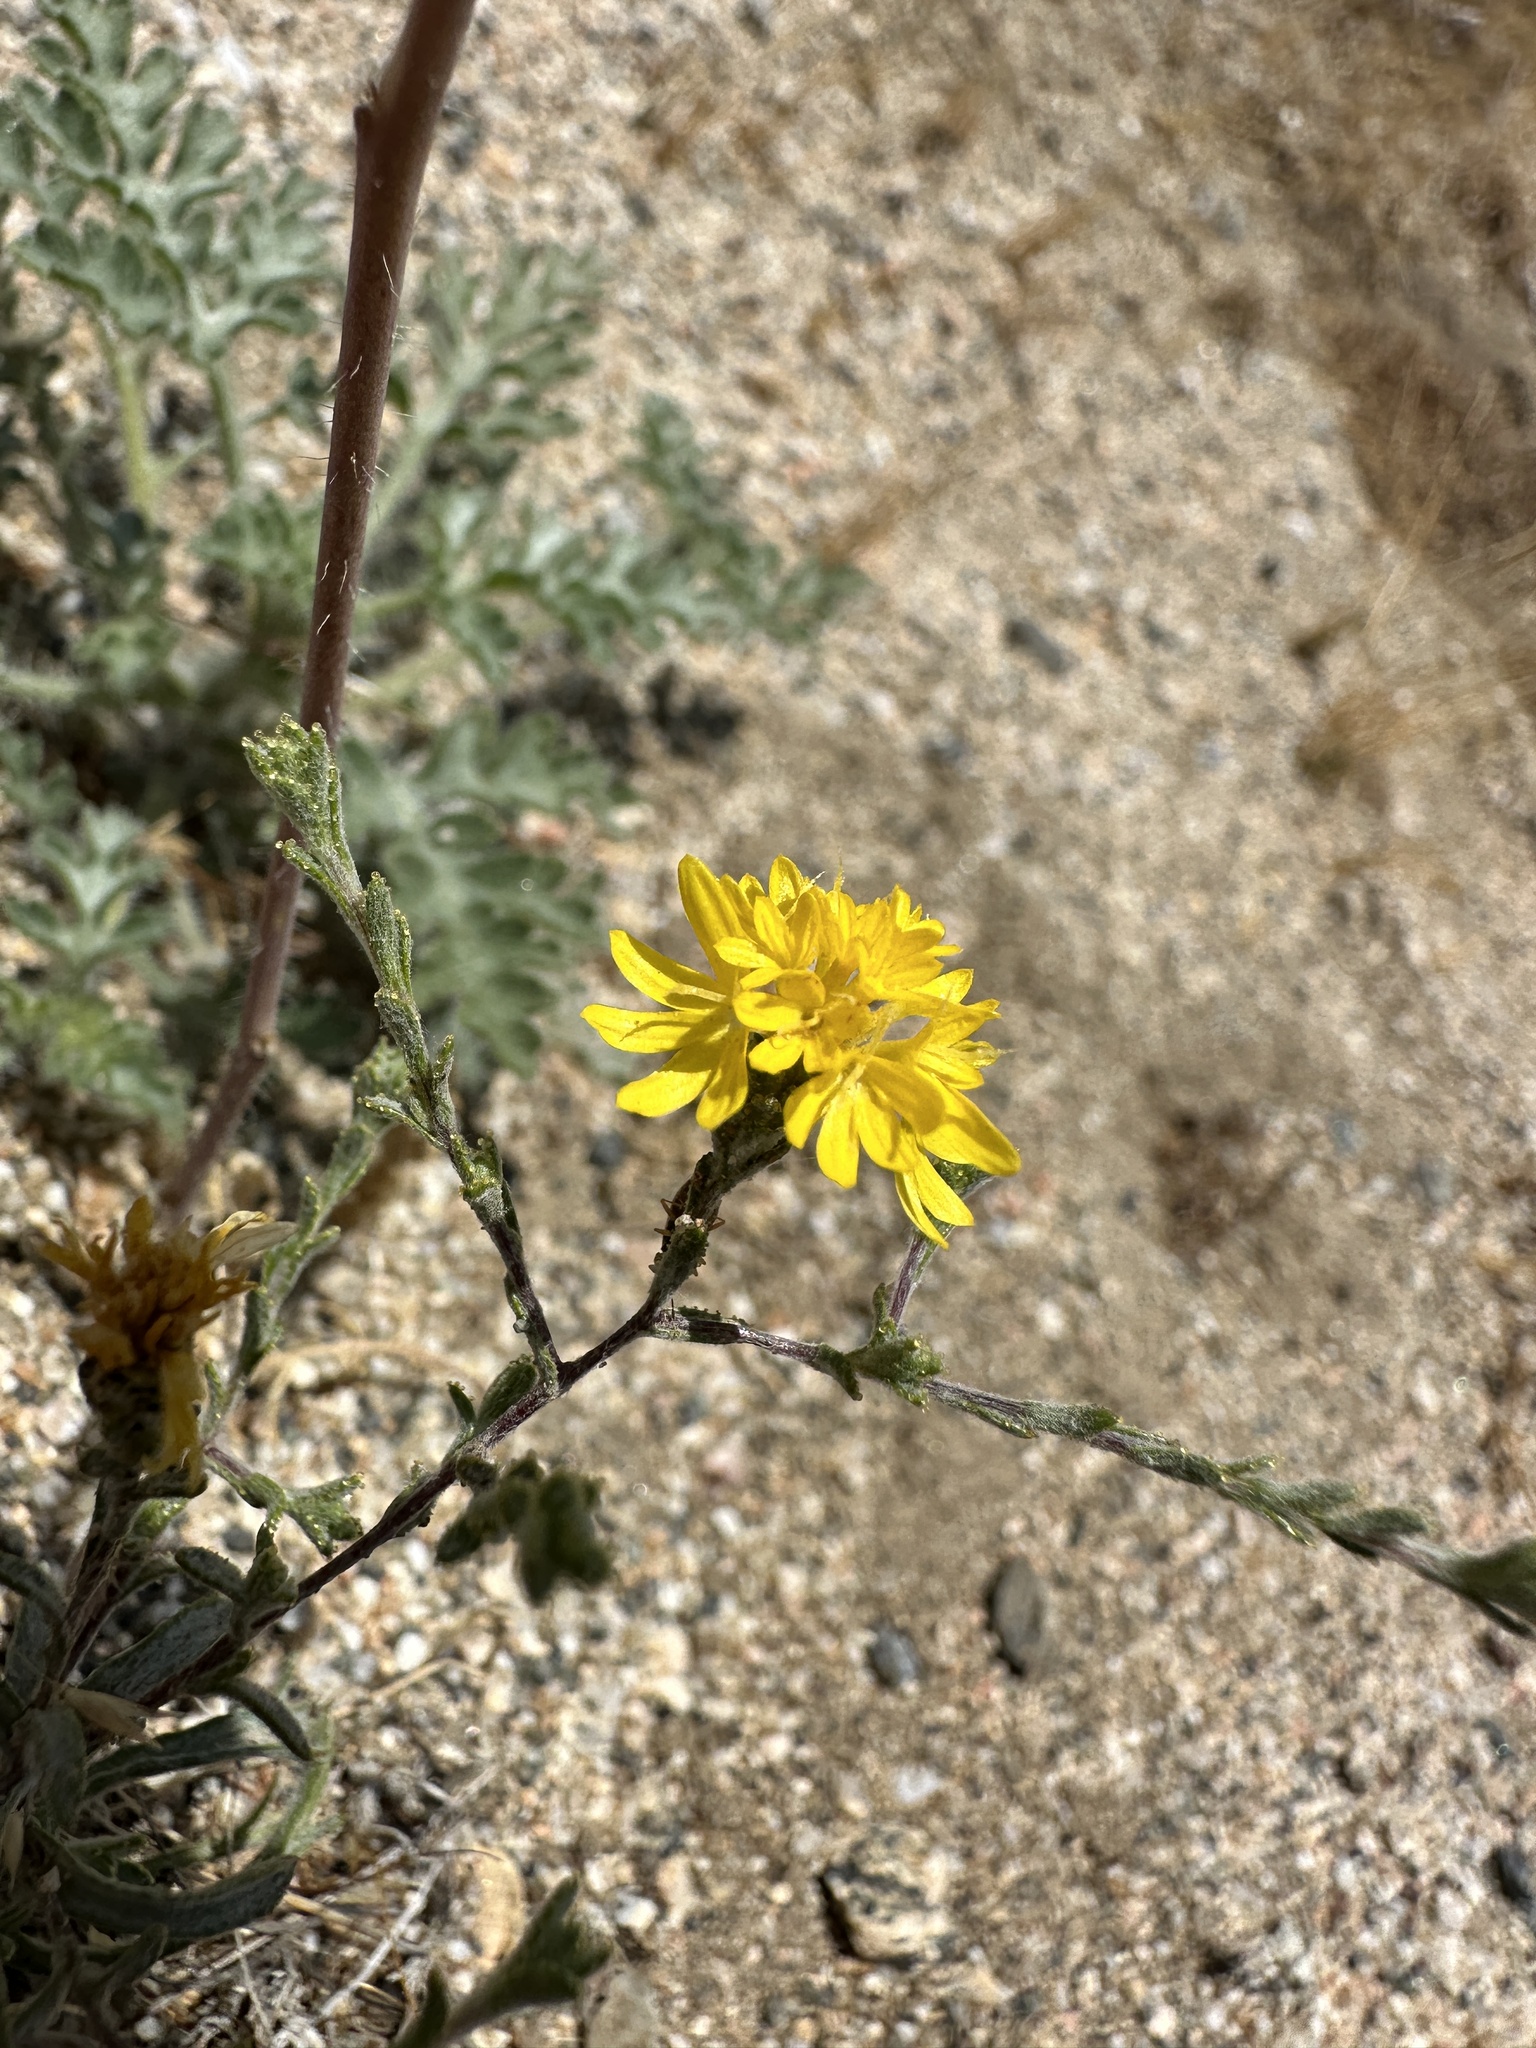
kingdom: Plantae
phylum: Tracheophyta
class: Magnoliopsida
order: Asterales
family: Asteraceae
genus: Lessingia
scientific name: Lessingia glandulifera
